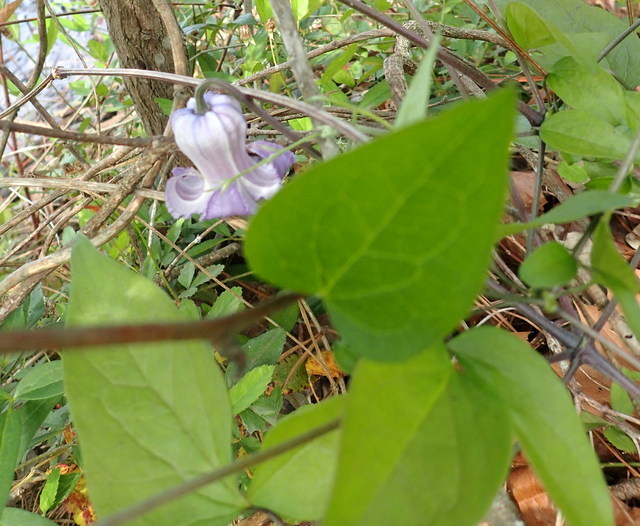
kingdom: Plantae
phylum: Tracheophyta
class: Magnoliopsida
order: Ranunculales
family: Ranunculaceae
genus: Clematis
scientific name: Clematis crispa
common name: Curly clematis
